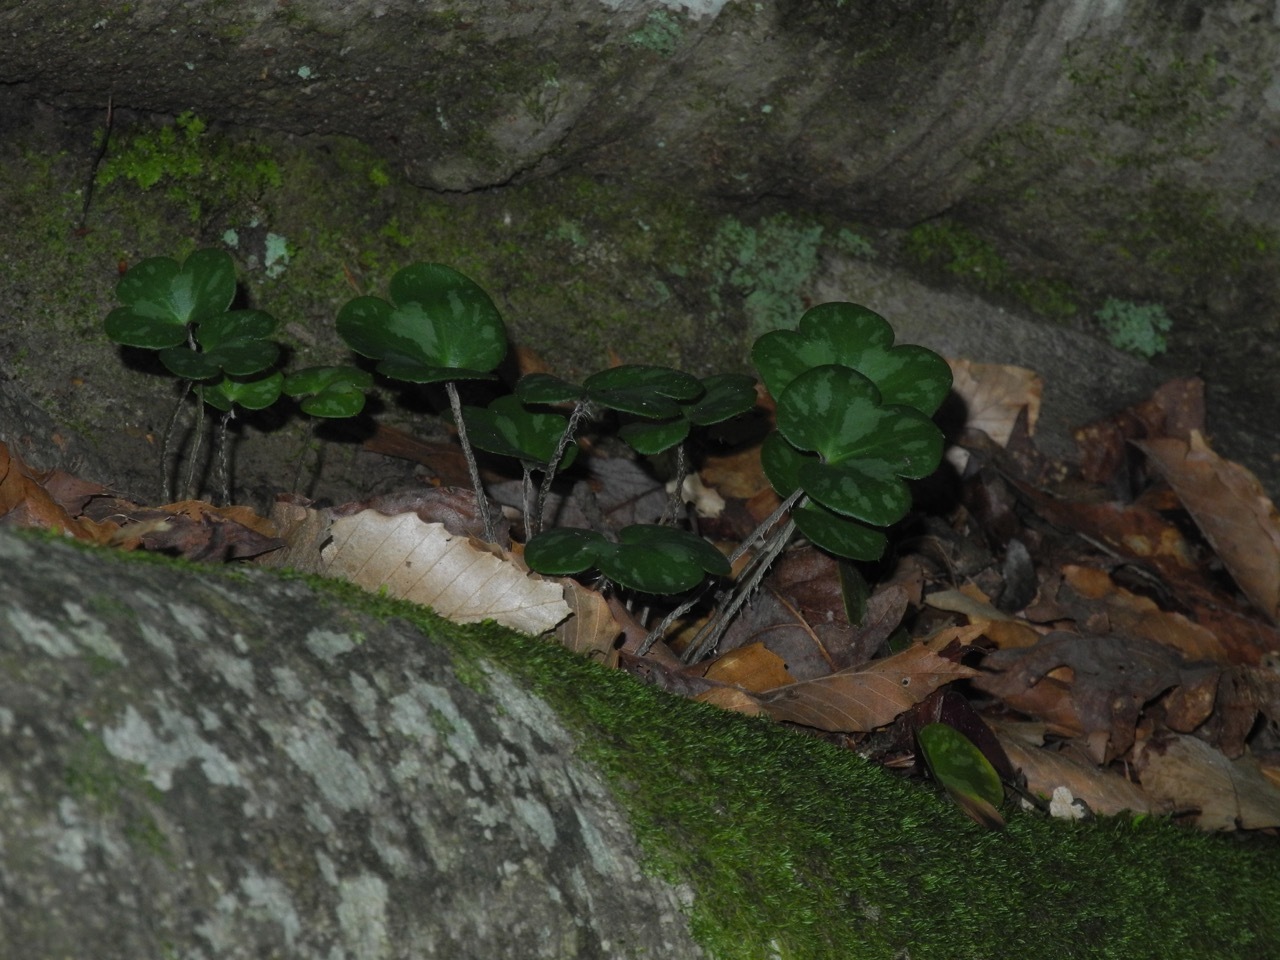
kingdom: Plantae
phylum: Tracheophyta
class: Magnoliopsida
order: Ranunculales
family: Ranunculaceae
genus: Hepatica
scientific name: Hepatica americana
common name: American hepatica
